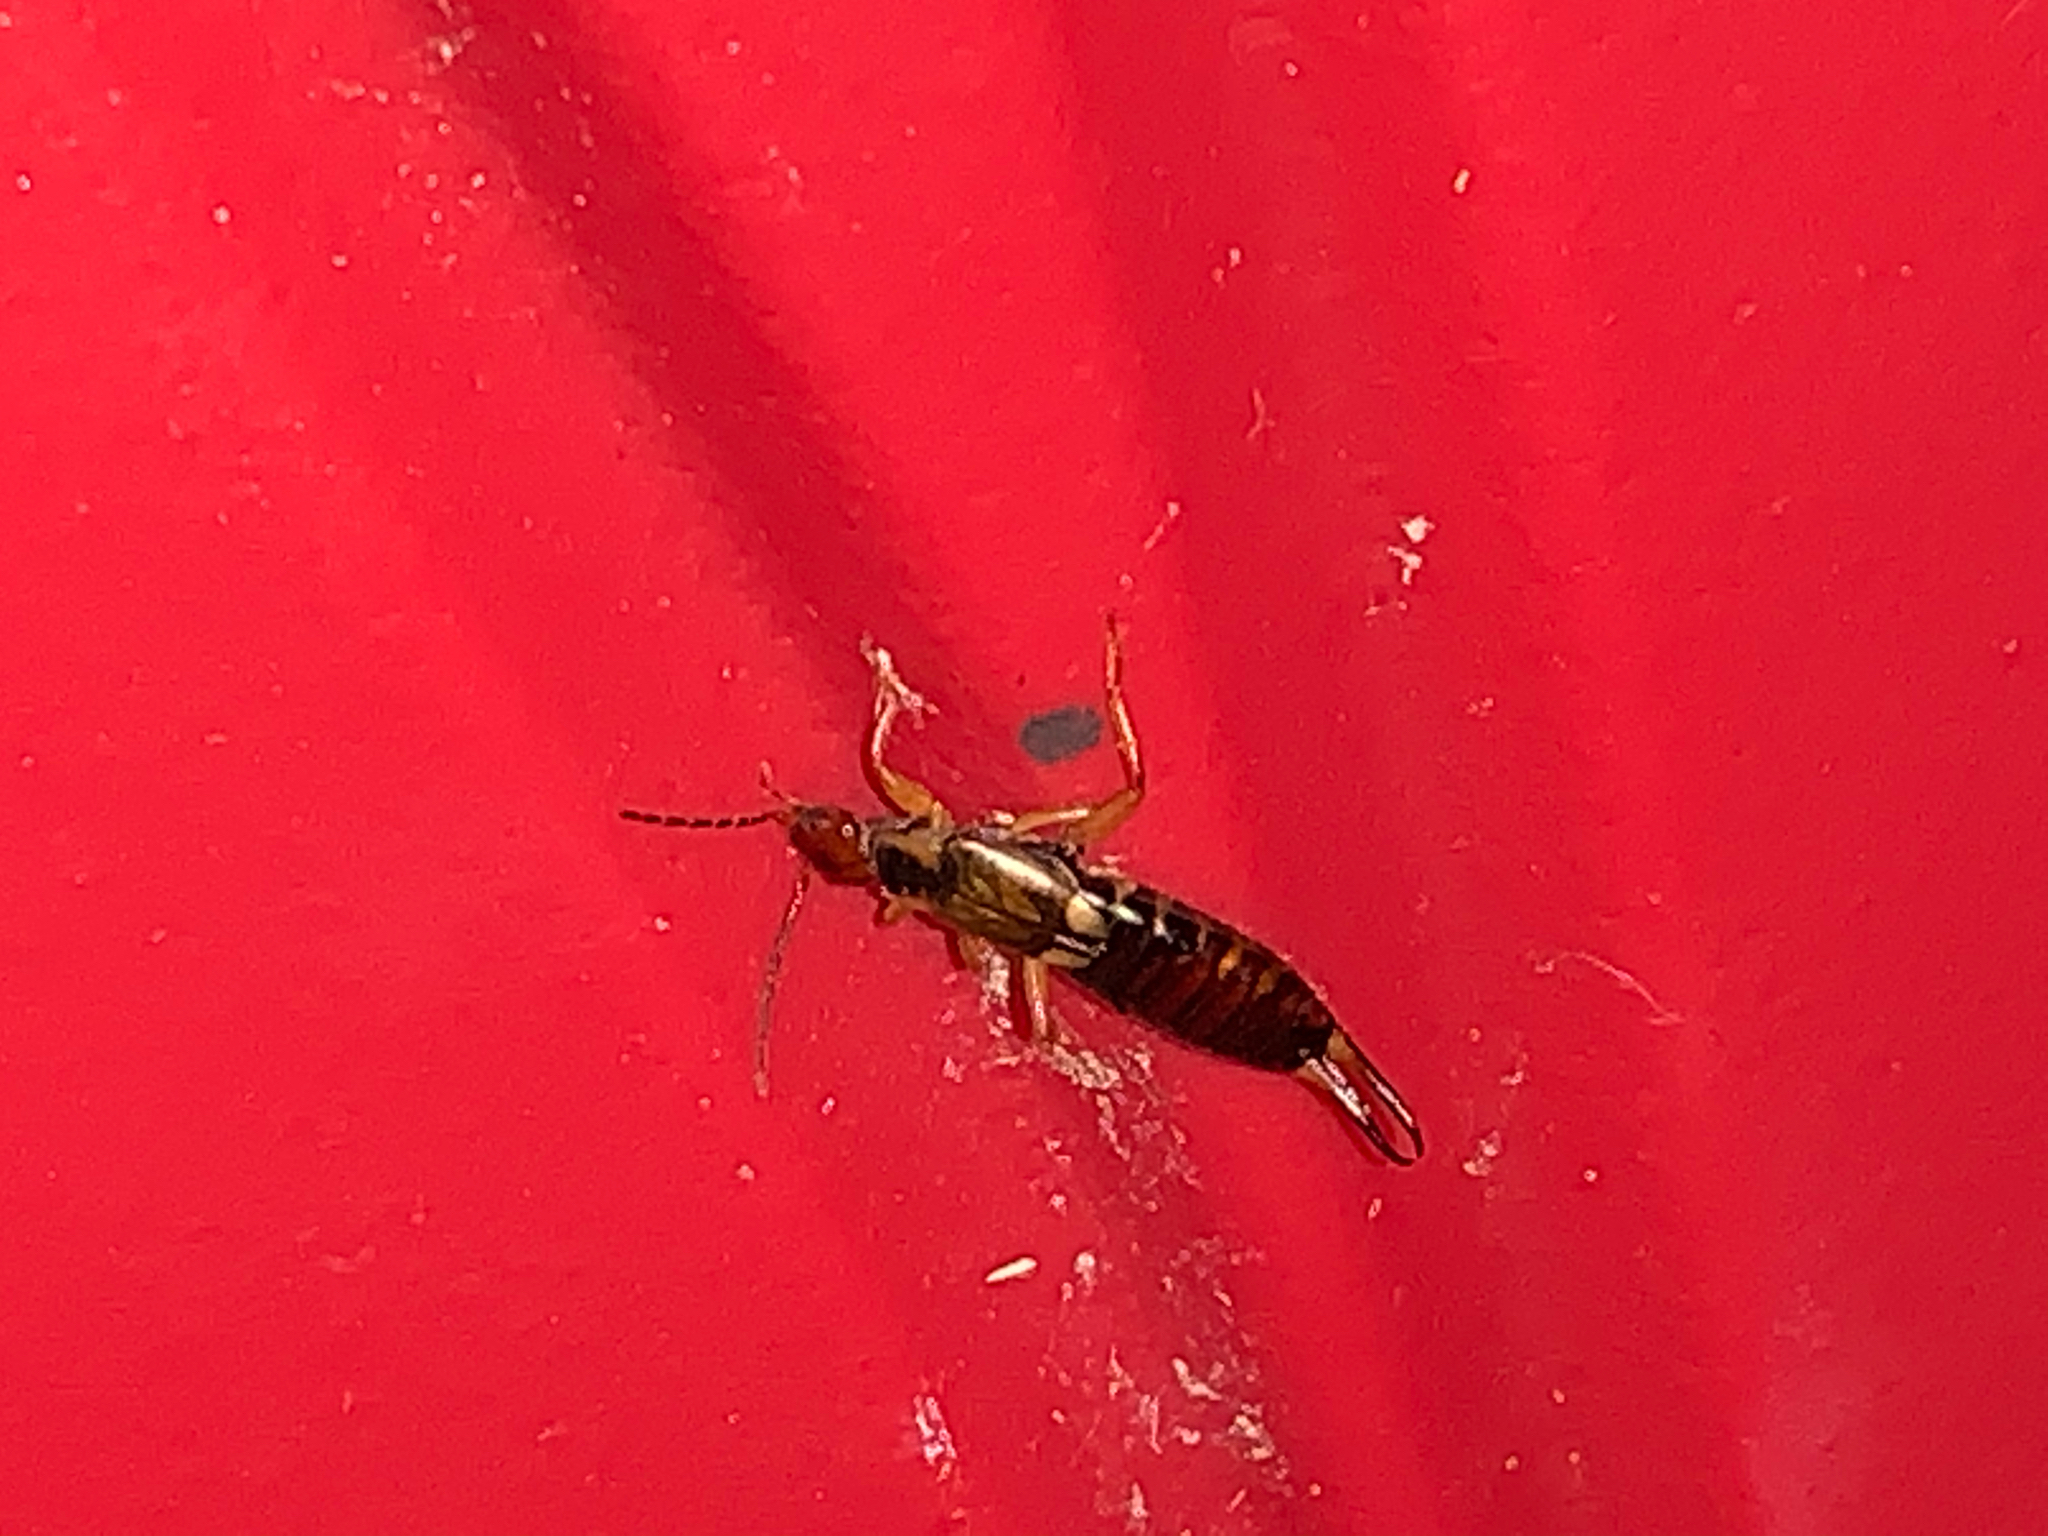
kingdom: Animalia
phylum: Arthropoda
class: Insecta
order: Dermaptera
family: Forficulidae
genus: Forficula
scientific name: Forficula
